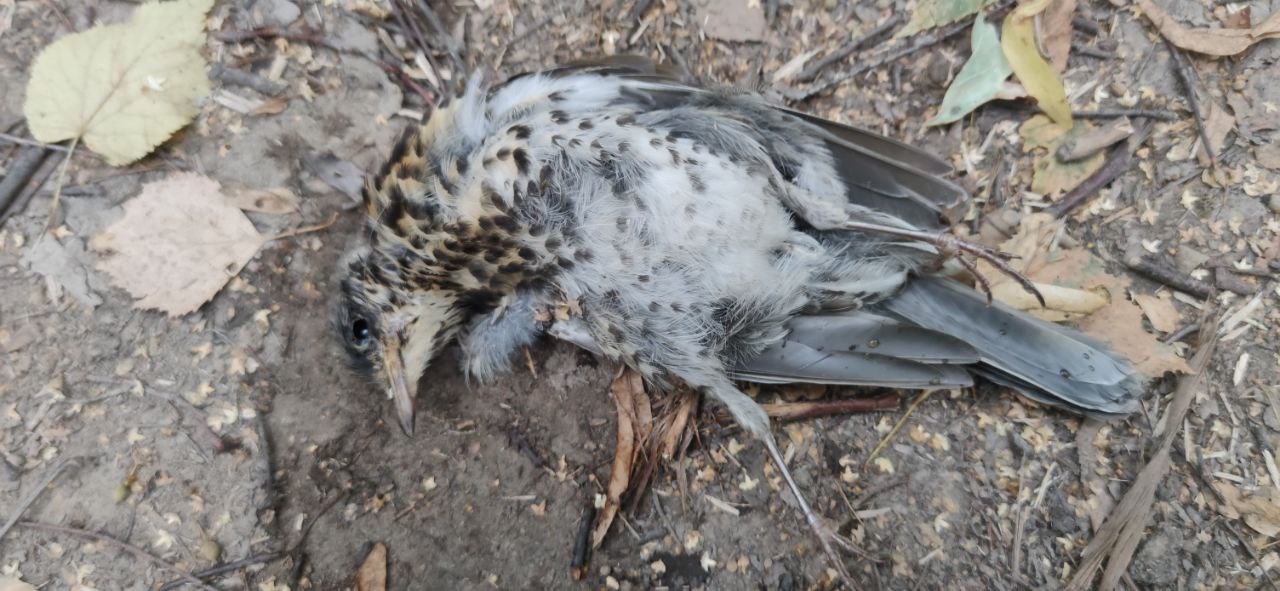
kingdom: Animalia
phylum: Chordata
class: Aves
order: Passeriformes
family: Turdidae
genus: Turdus
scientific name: Turdus pilaris
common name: Fieldfare
